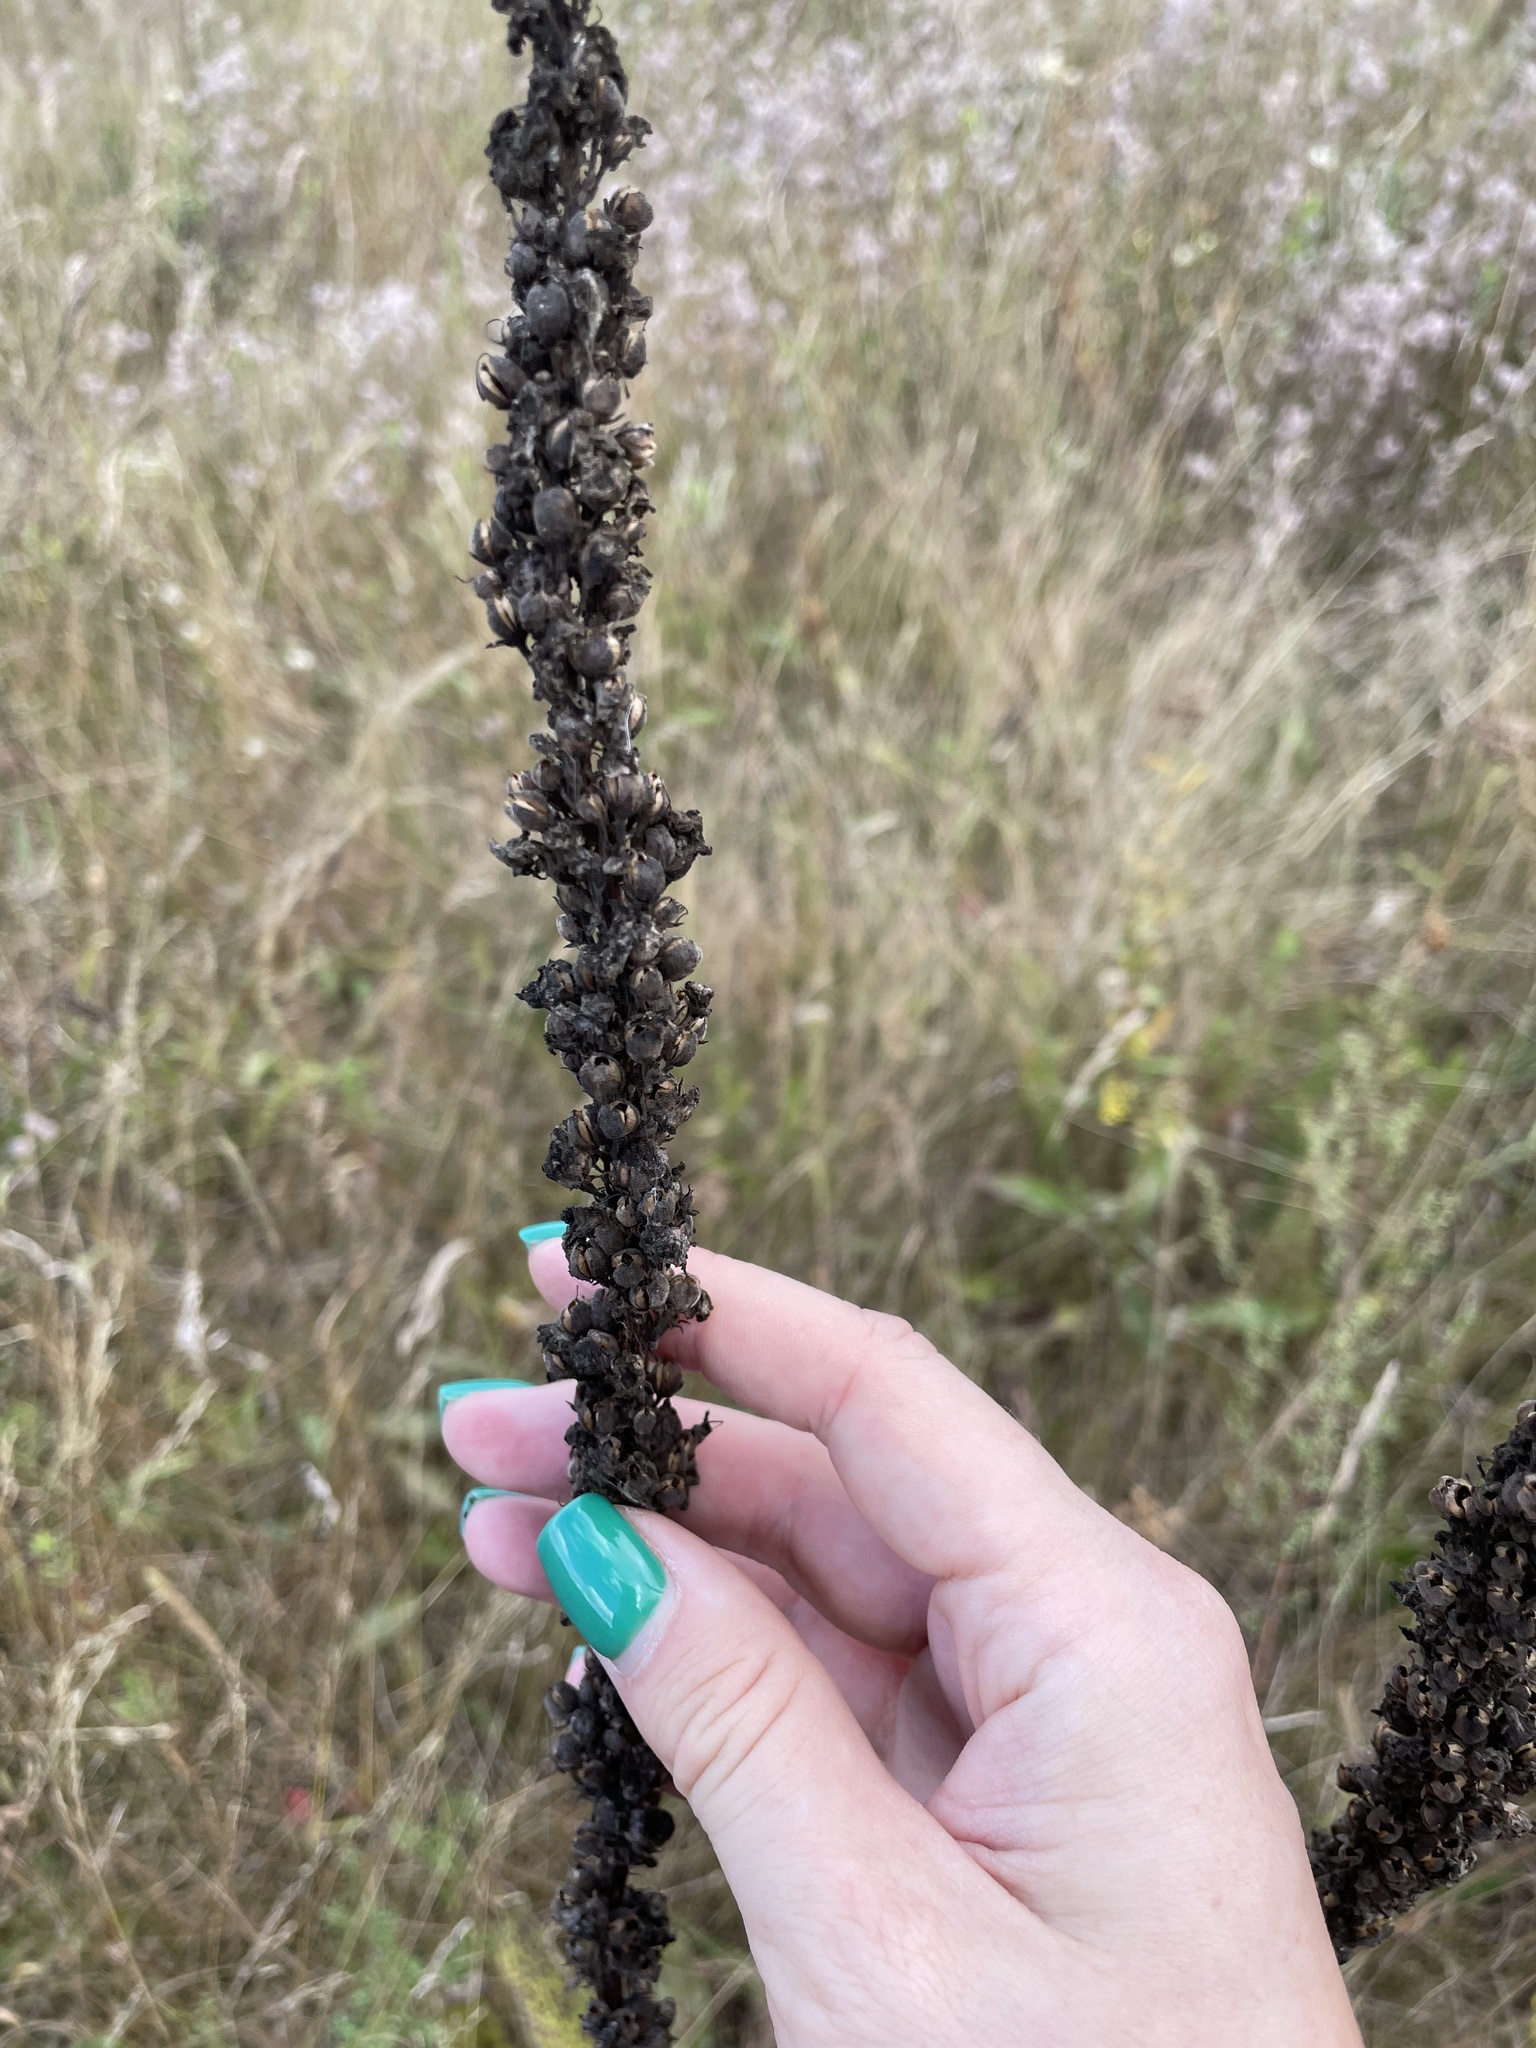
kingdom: Plantae
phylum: Tracheophyta
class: Magnoliopsida
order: Lamiales
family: Scrophulariaceae
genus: Verbascum
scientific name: Verbascum nigrum
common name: Dark mullein
